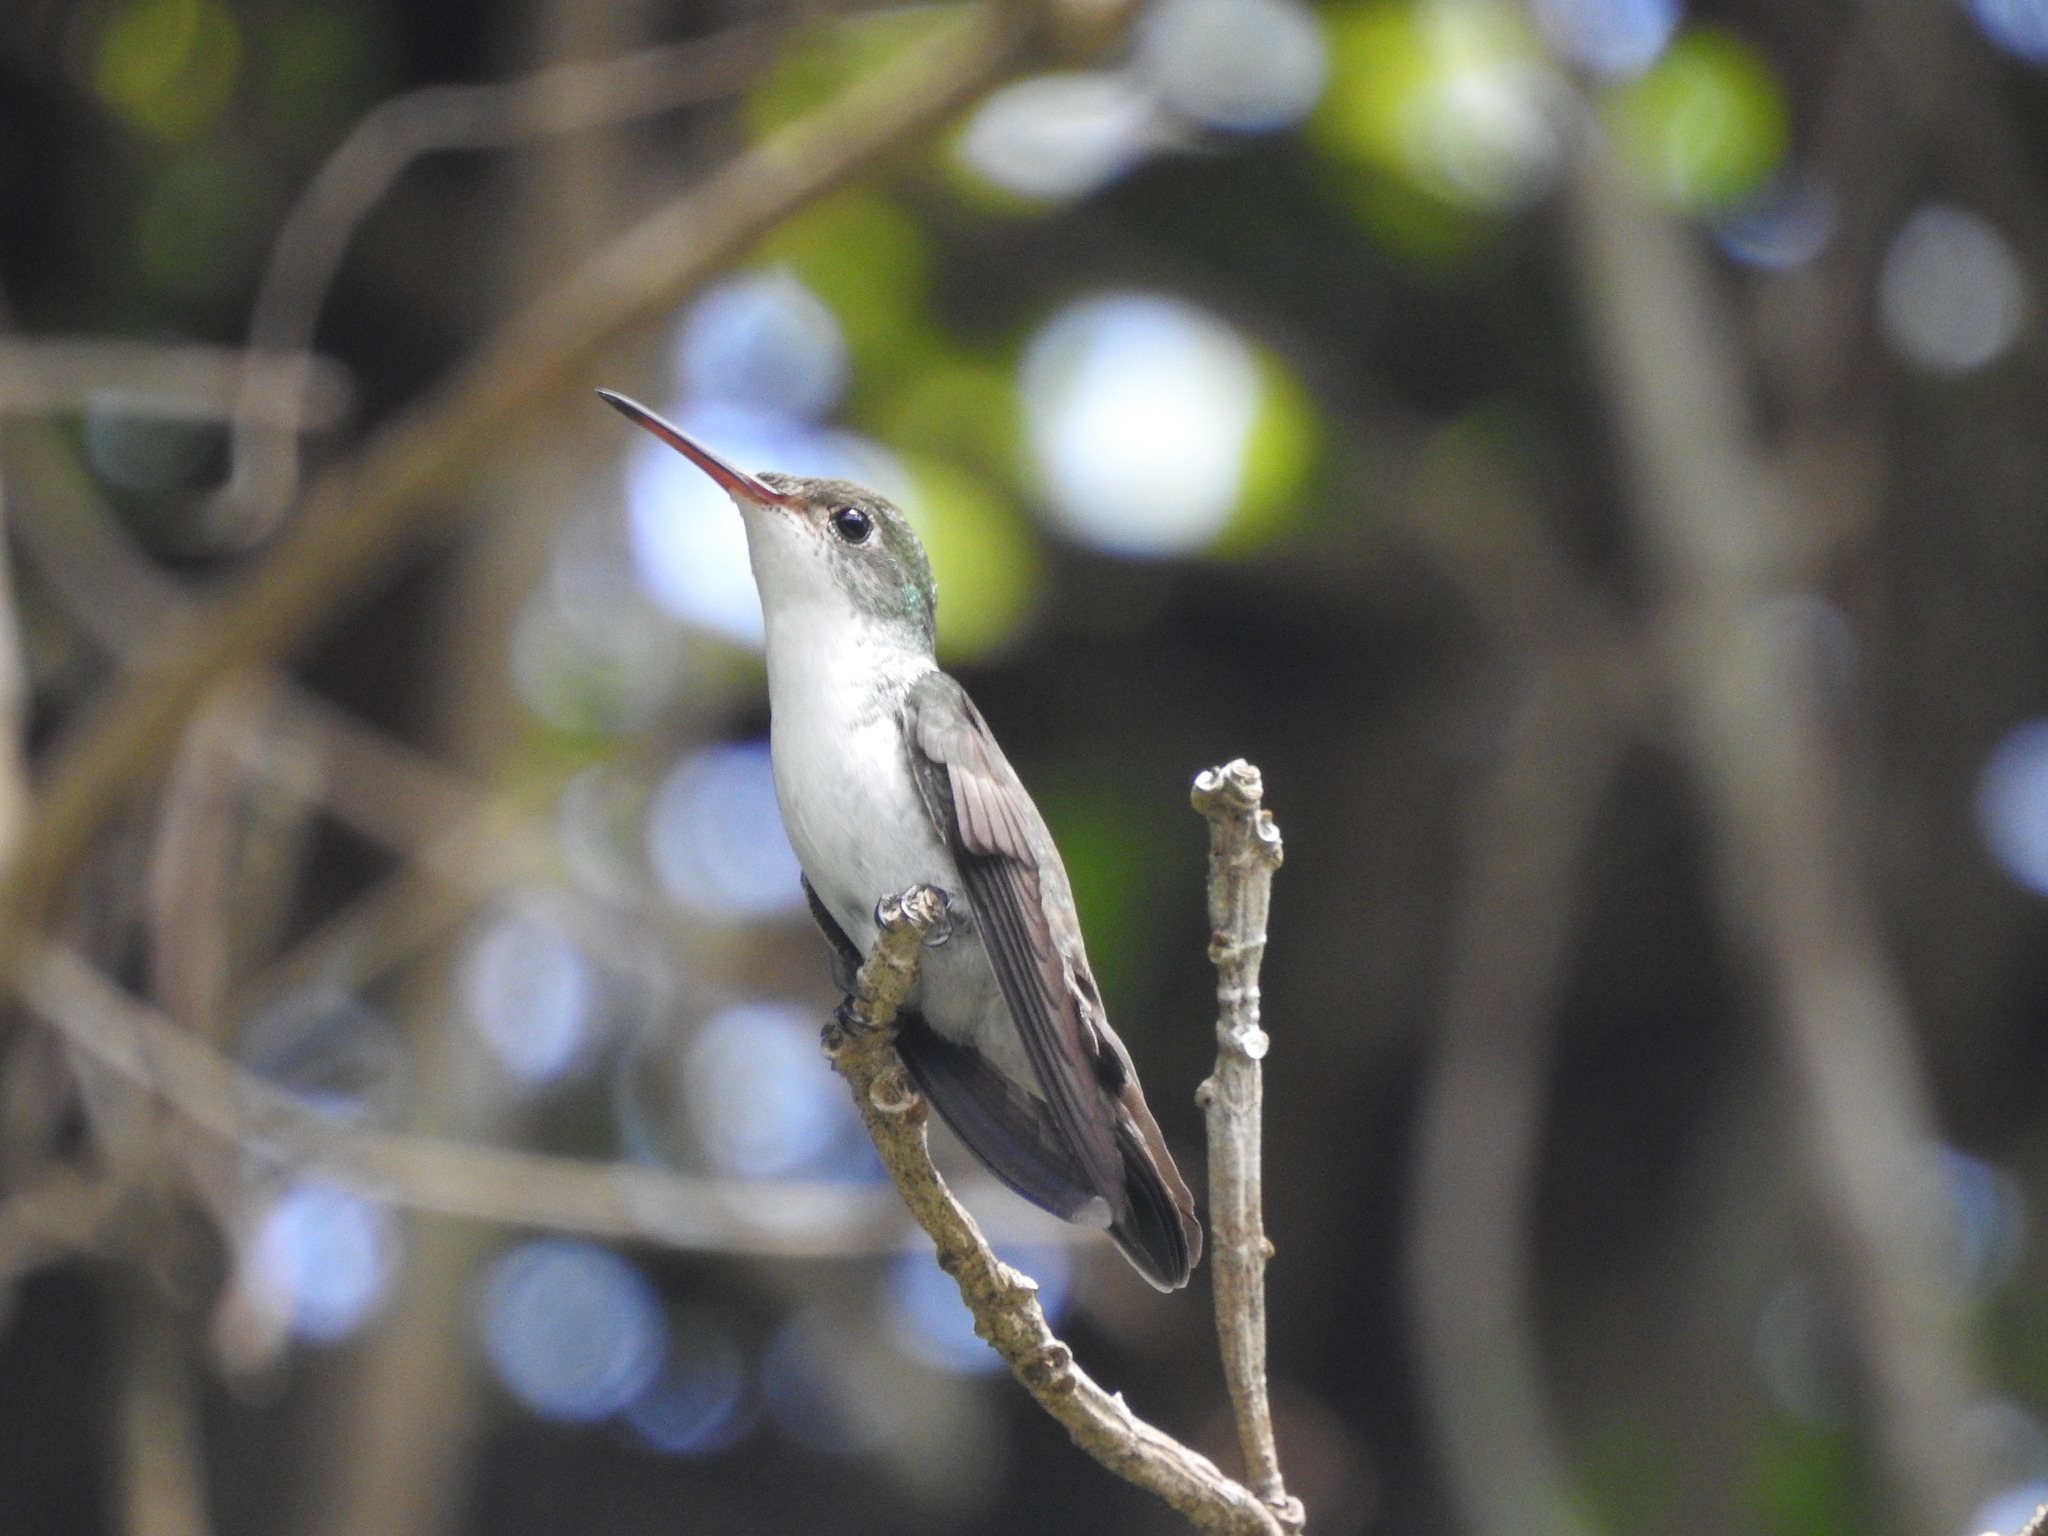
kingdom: Animalia
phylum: Chordata
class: Aves
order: Apodiformes
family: Trochilidae
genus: Chlorestes
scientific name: Chlorestes candida
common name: White-bellied emerald
